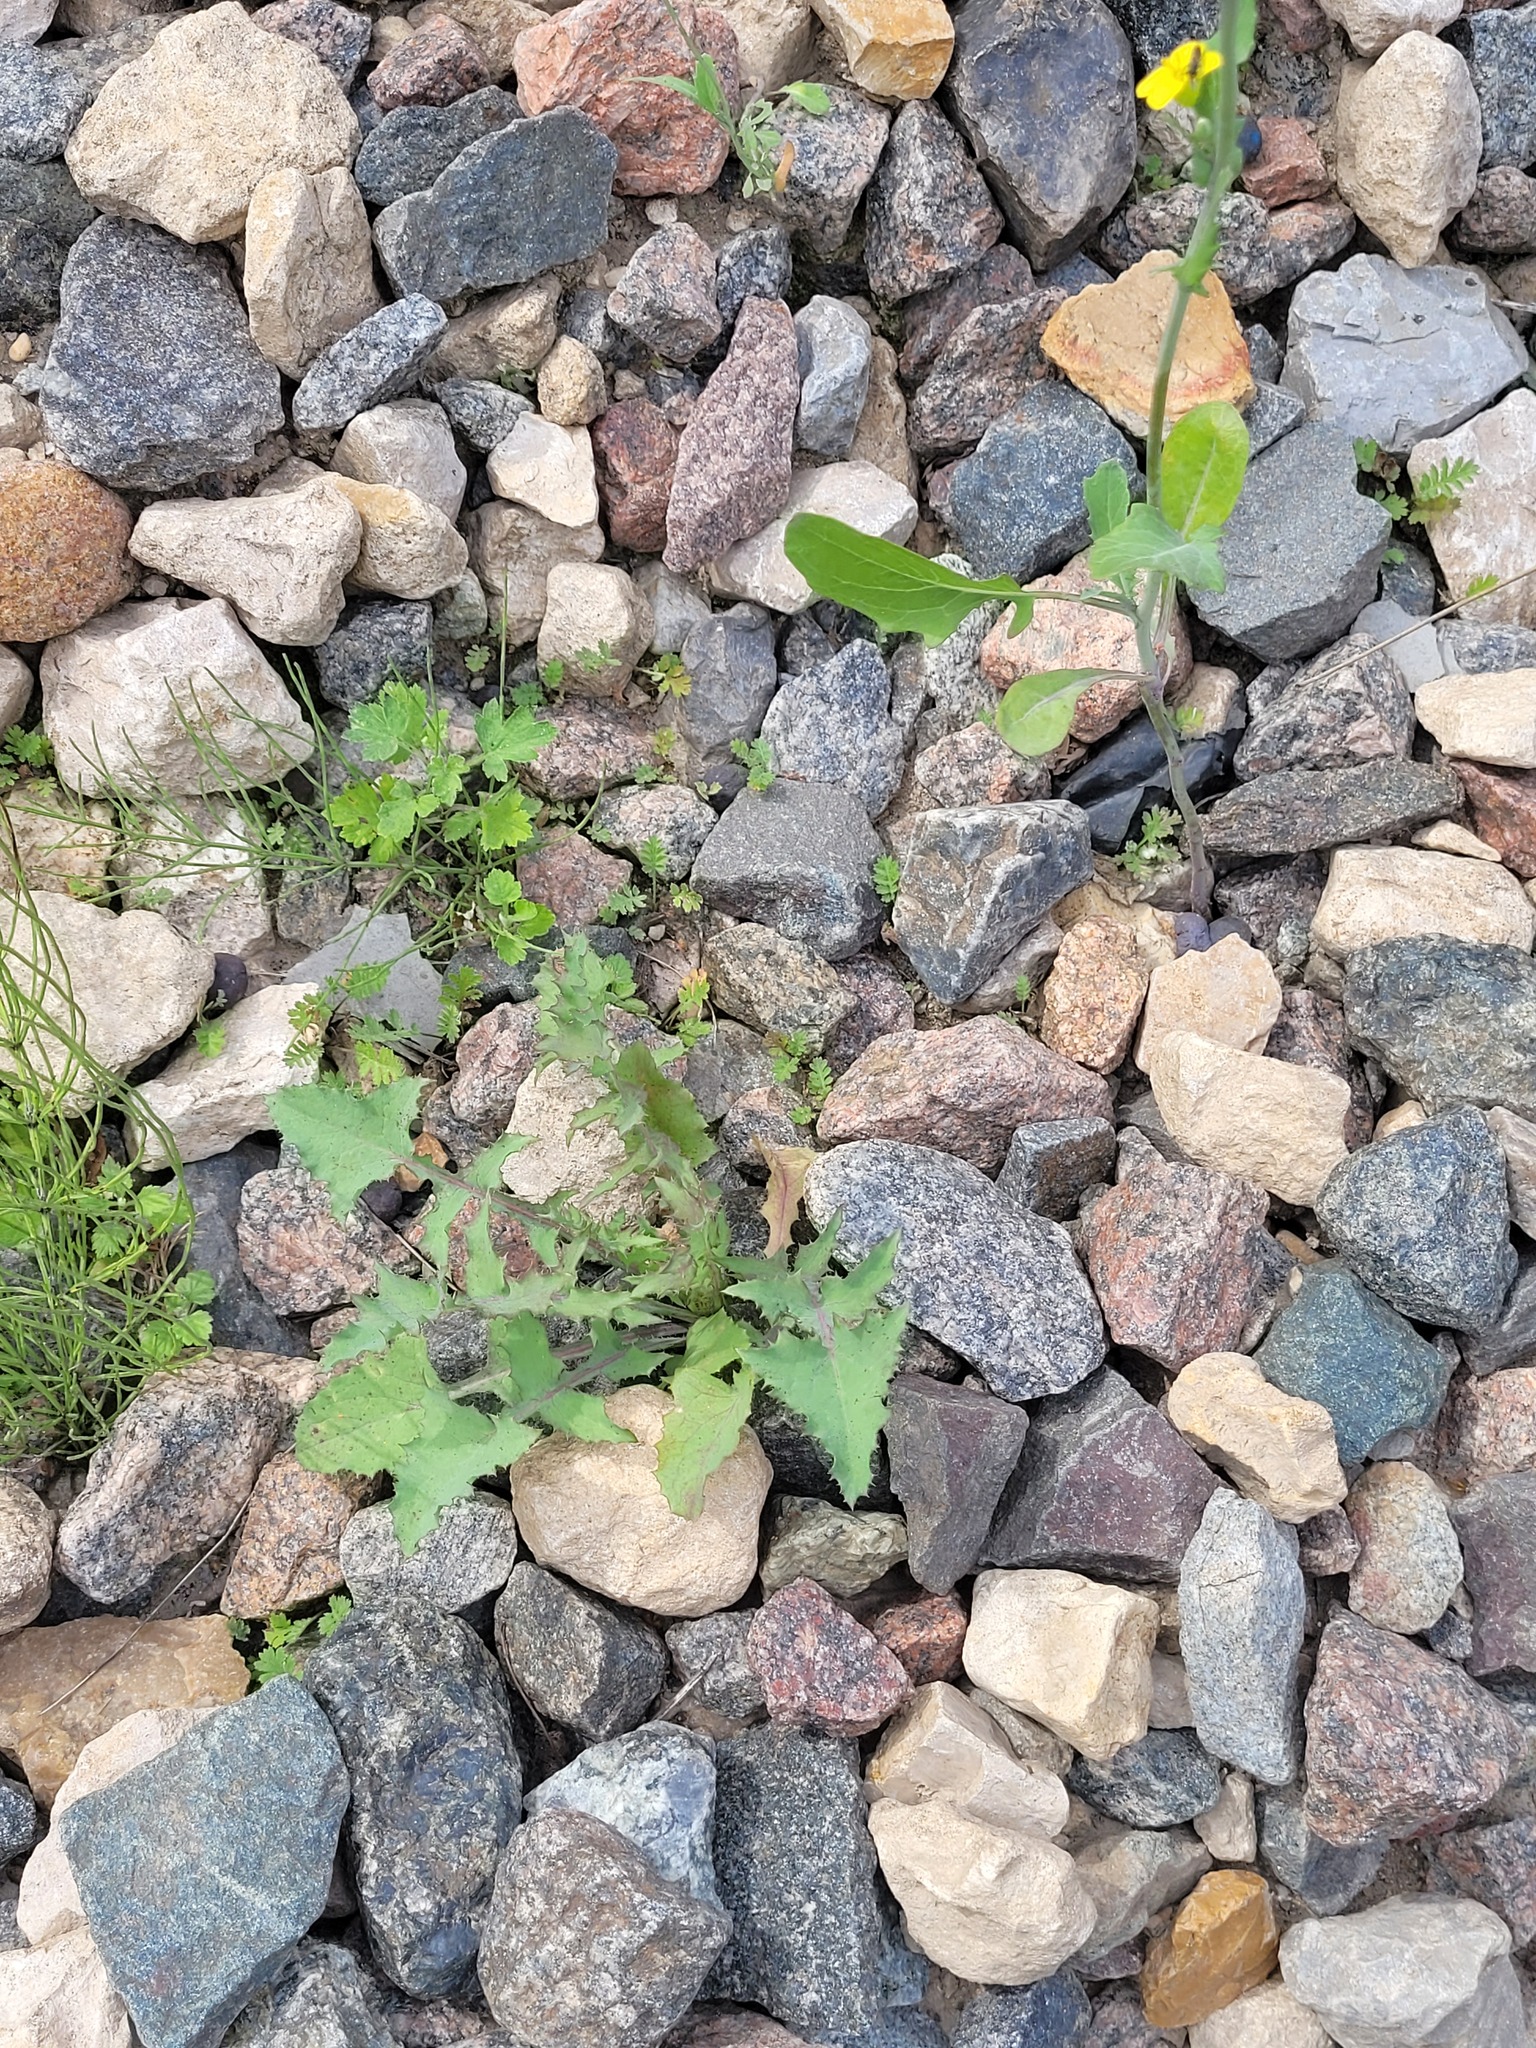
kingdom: Plantae
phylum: Tracheophyta
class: Magnoliopsida
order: Asterales
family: Asteraceae
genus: Sonchus
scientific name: Sonchus oleraceus
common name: Common sowthistle
